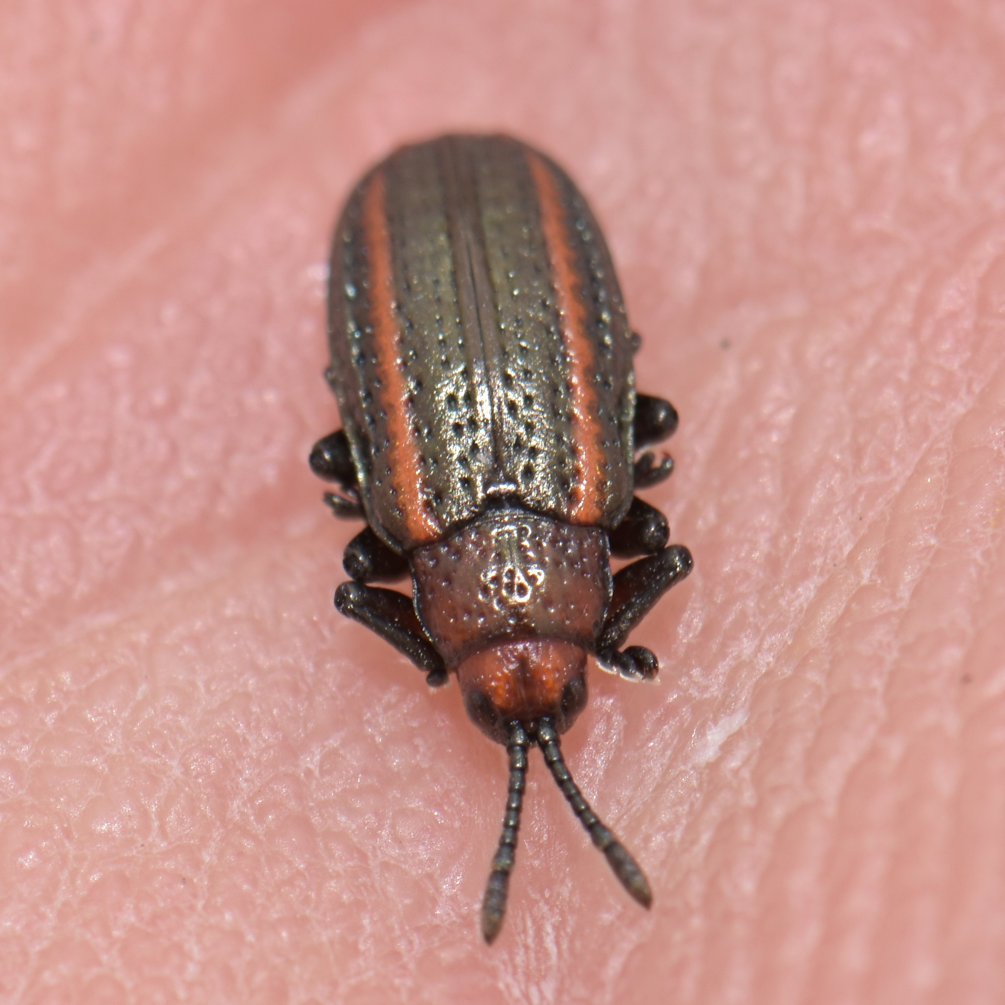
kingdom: Animalia
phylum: Arthropoda
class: Insecta
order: Coleoptera
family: Chrysomelidae
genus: Microrhopala
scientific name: Microrhopala vittata
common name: Goldenrod leaf miner beetle
